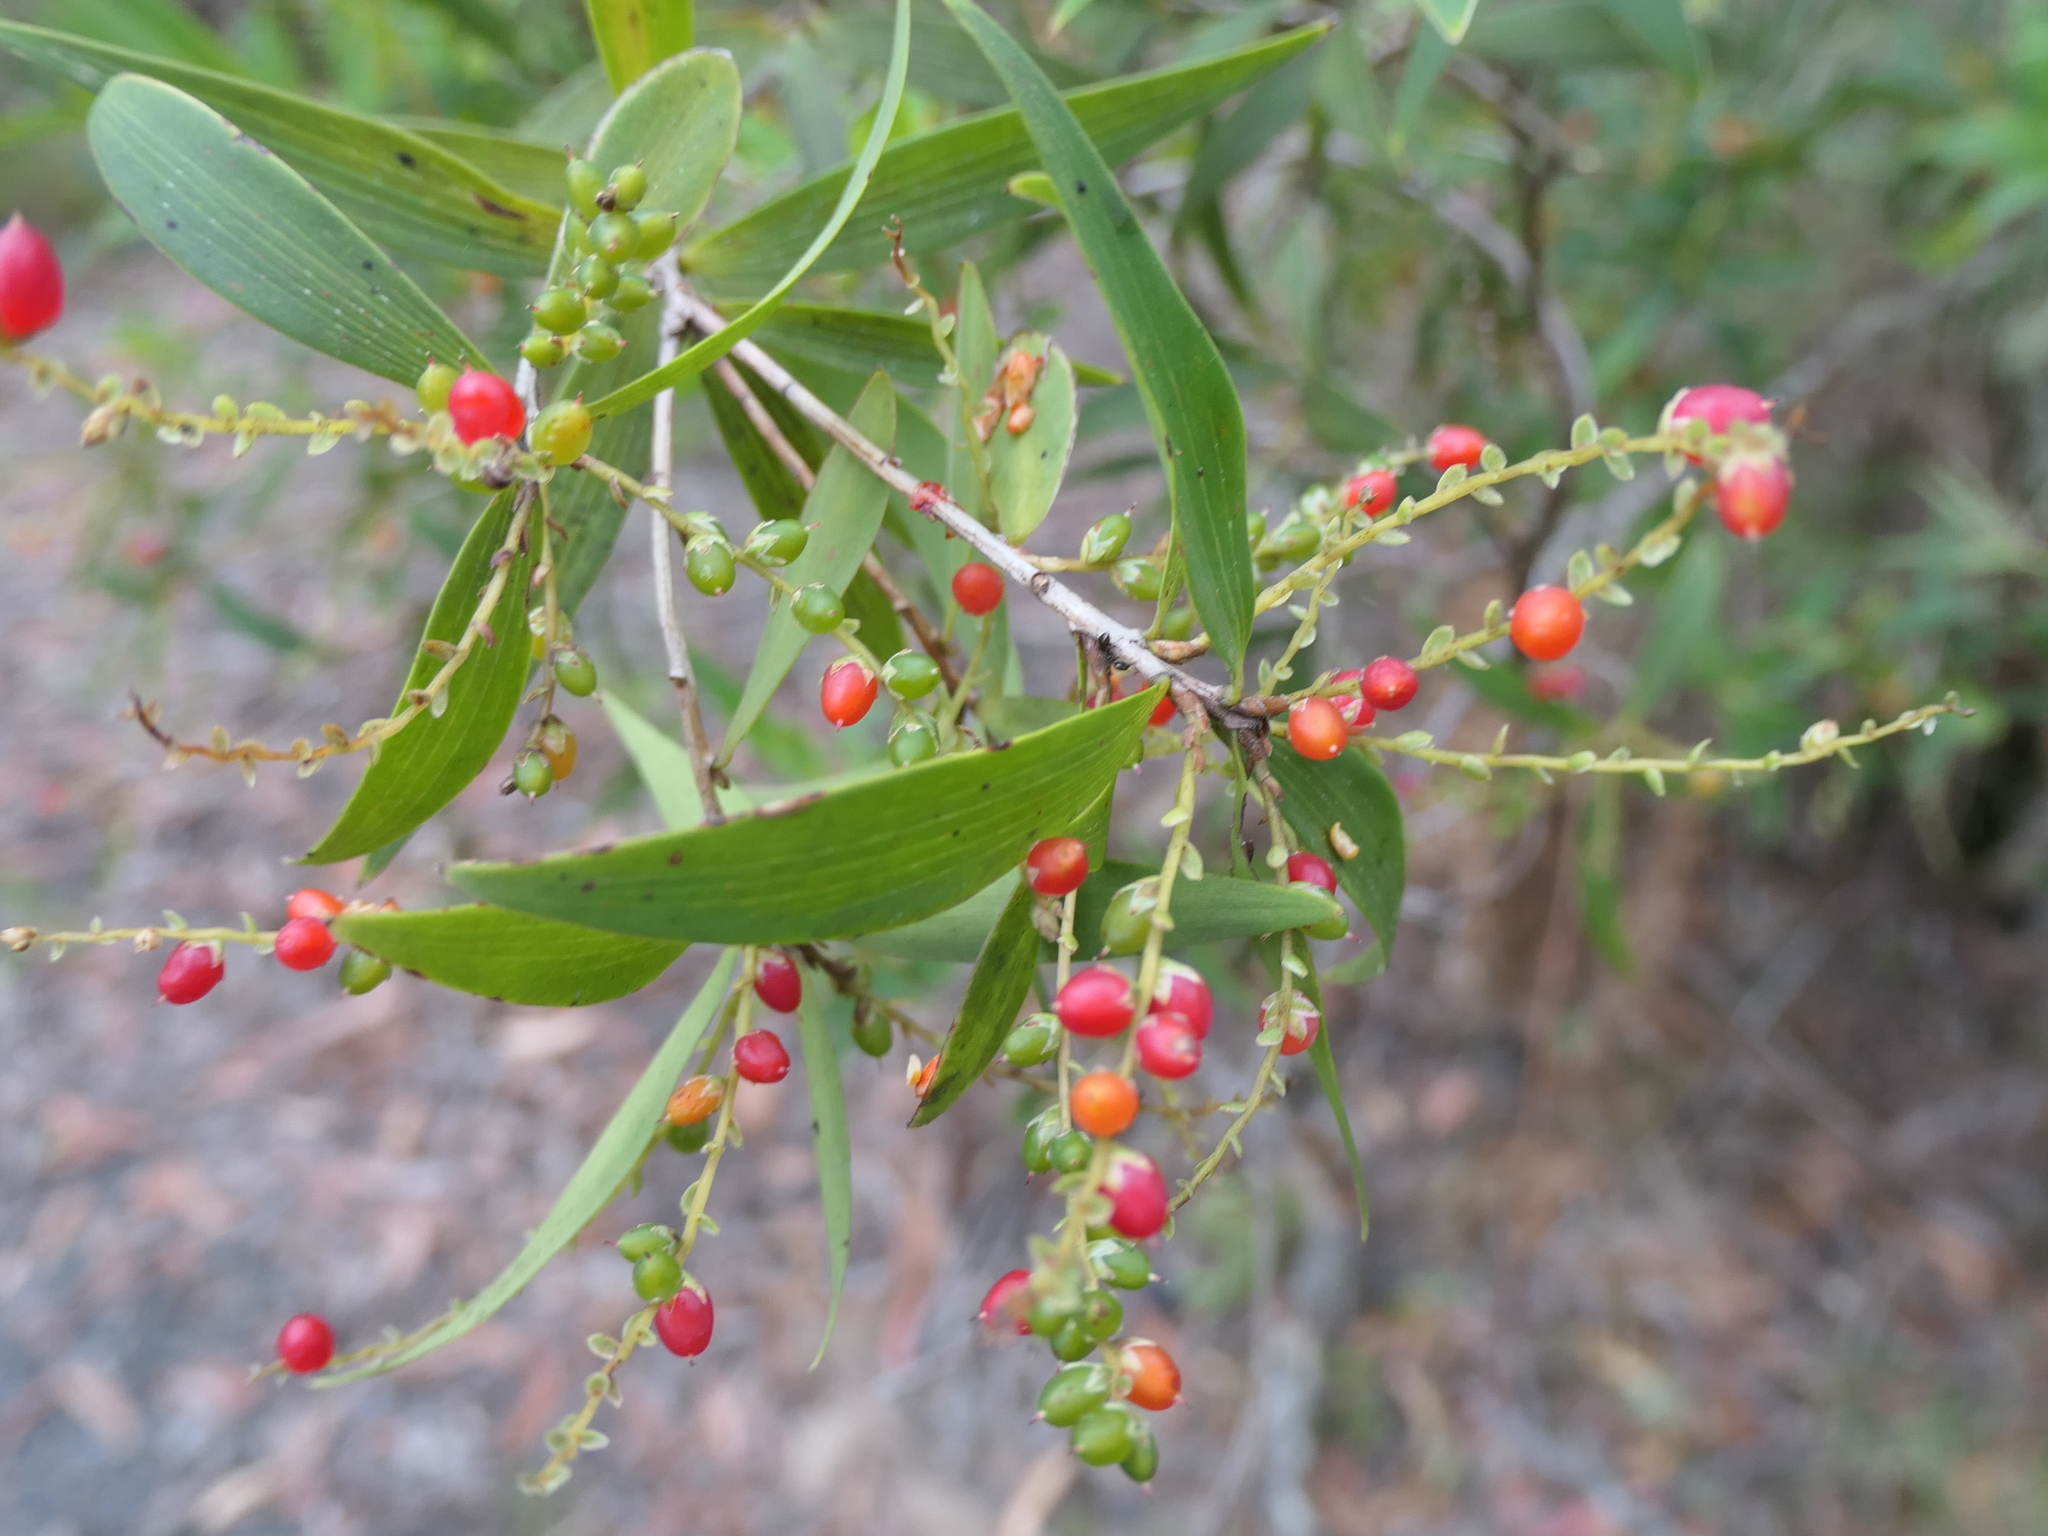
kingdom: Plantae
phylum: Tracheophyta
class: Magnoliopsida
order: Ericales
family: Ericaceae
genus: Leucopogon
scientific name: Leucopogon lanceolatus
